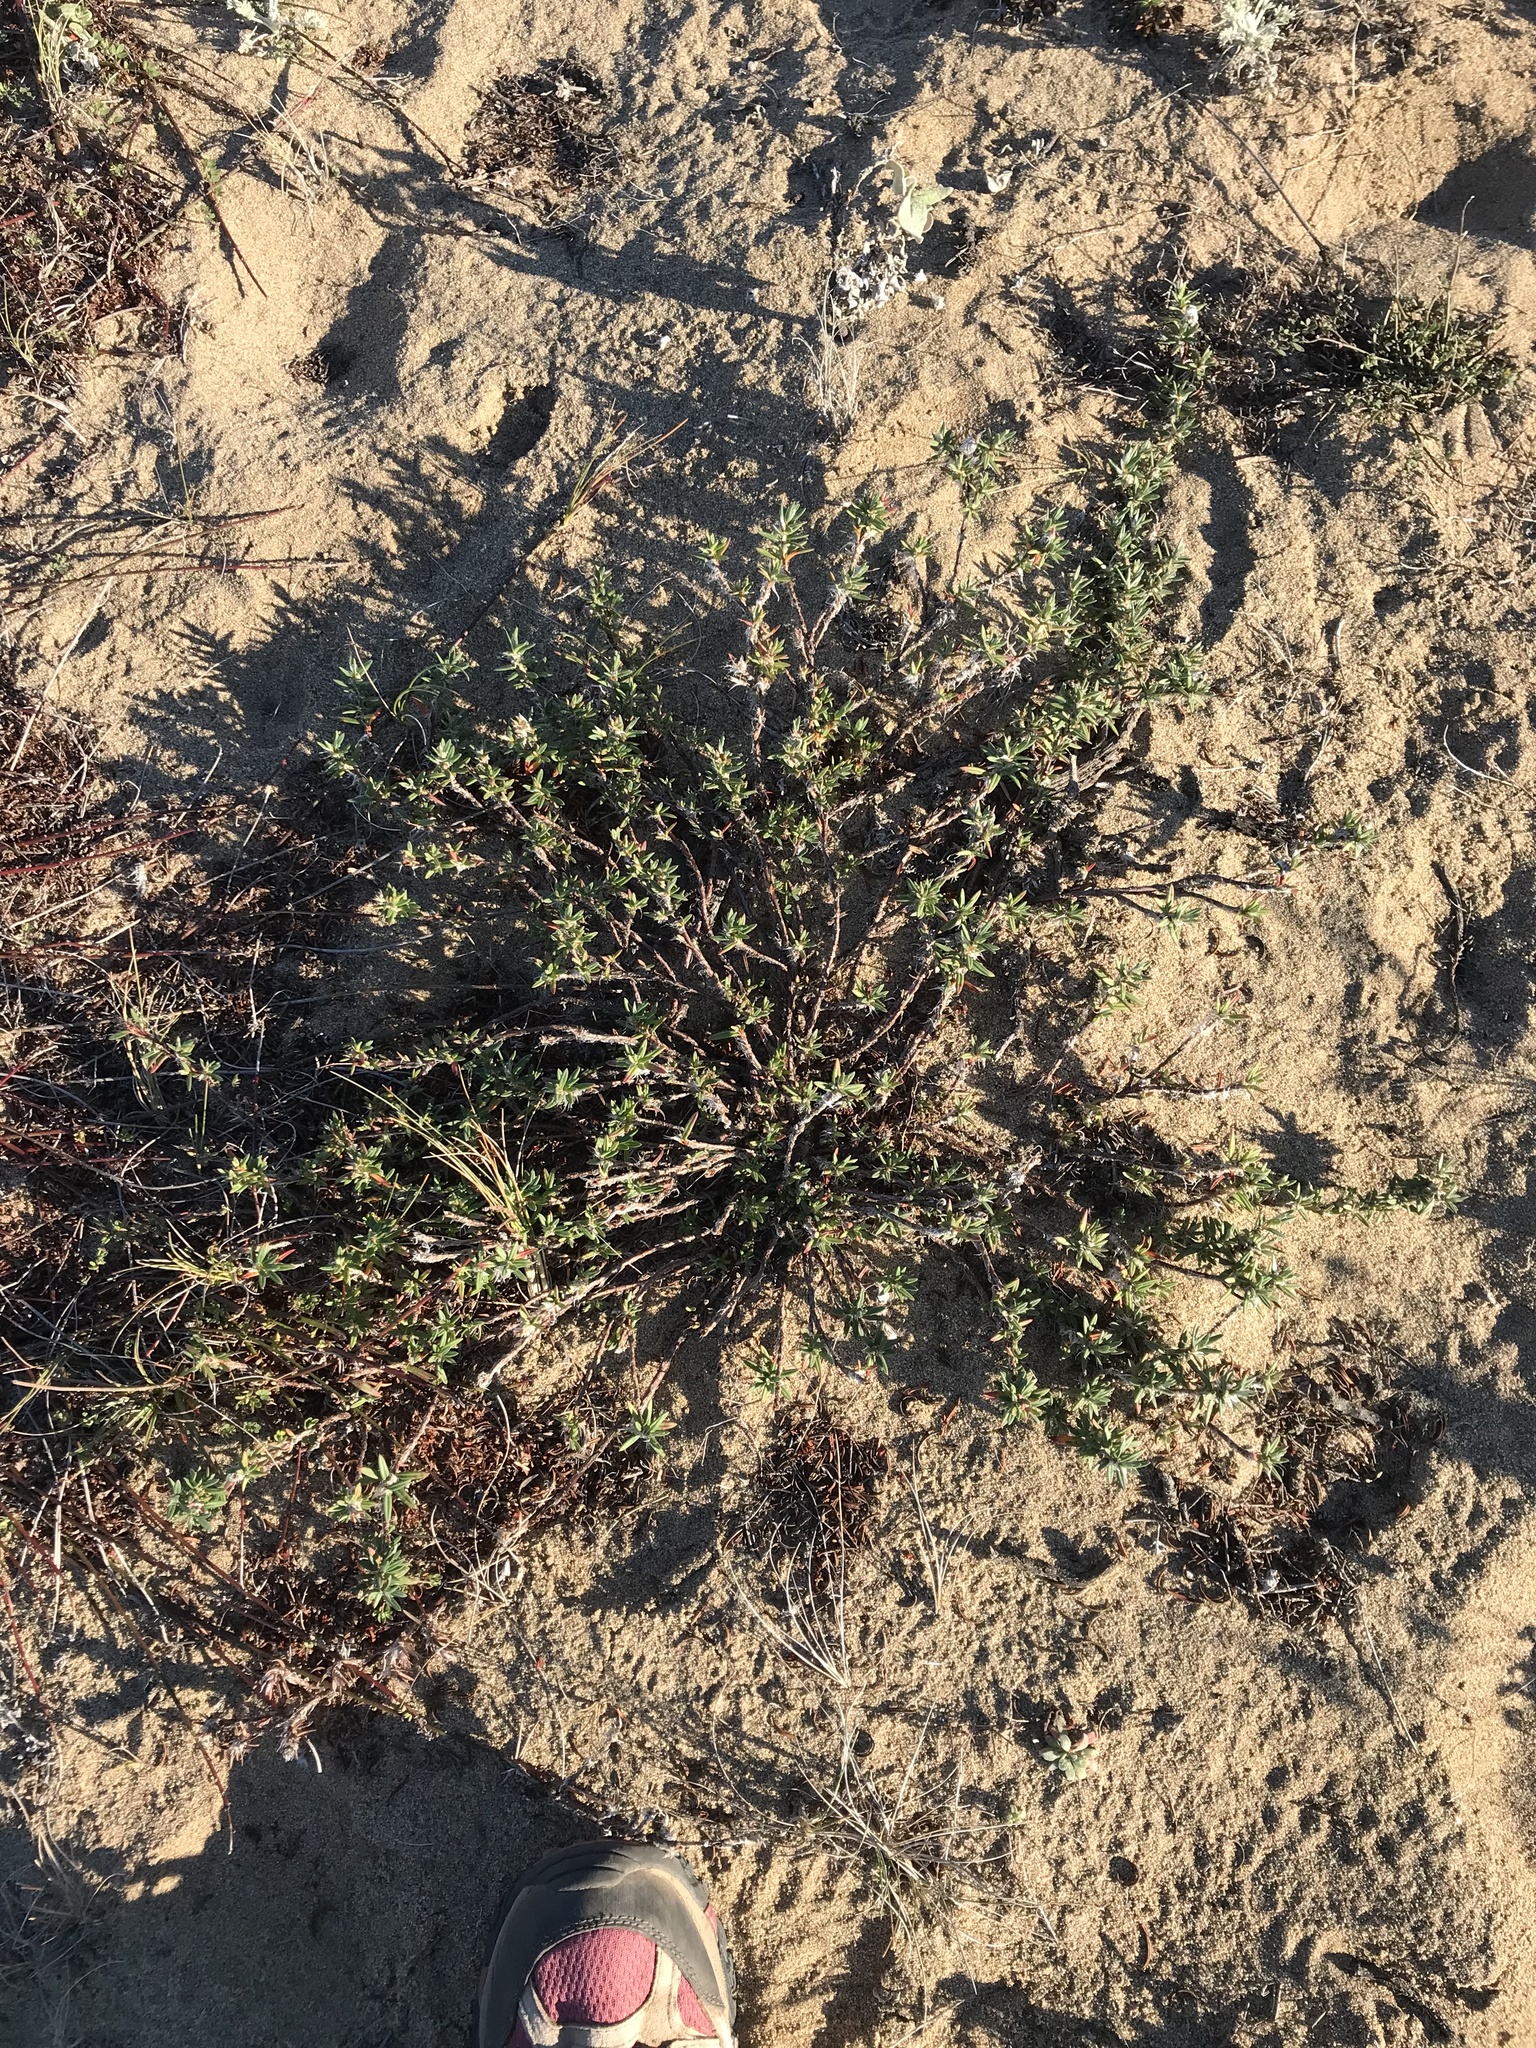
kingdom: Plantae
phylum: Tracheophyta
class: Magnoliopsida
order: Caryophyllales
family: Polygonaceae
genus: Polygonum
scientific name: Polygonum paronychia
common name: Dune knotweed
